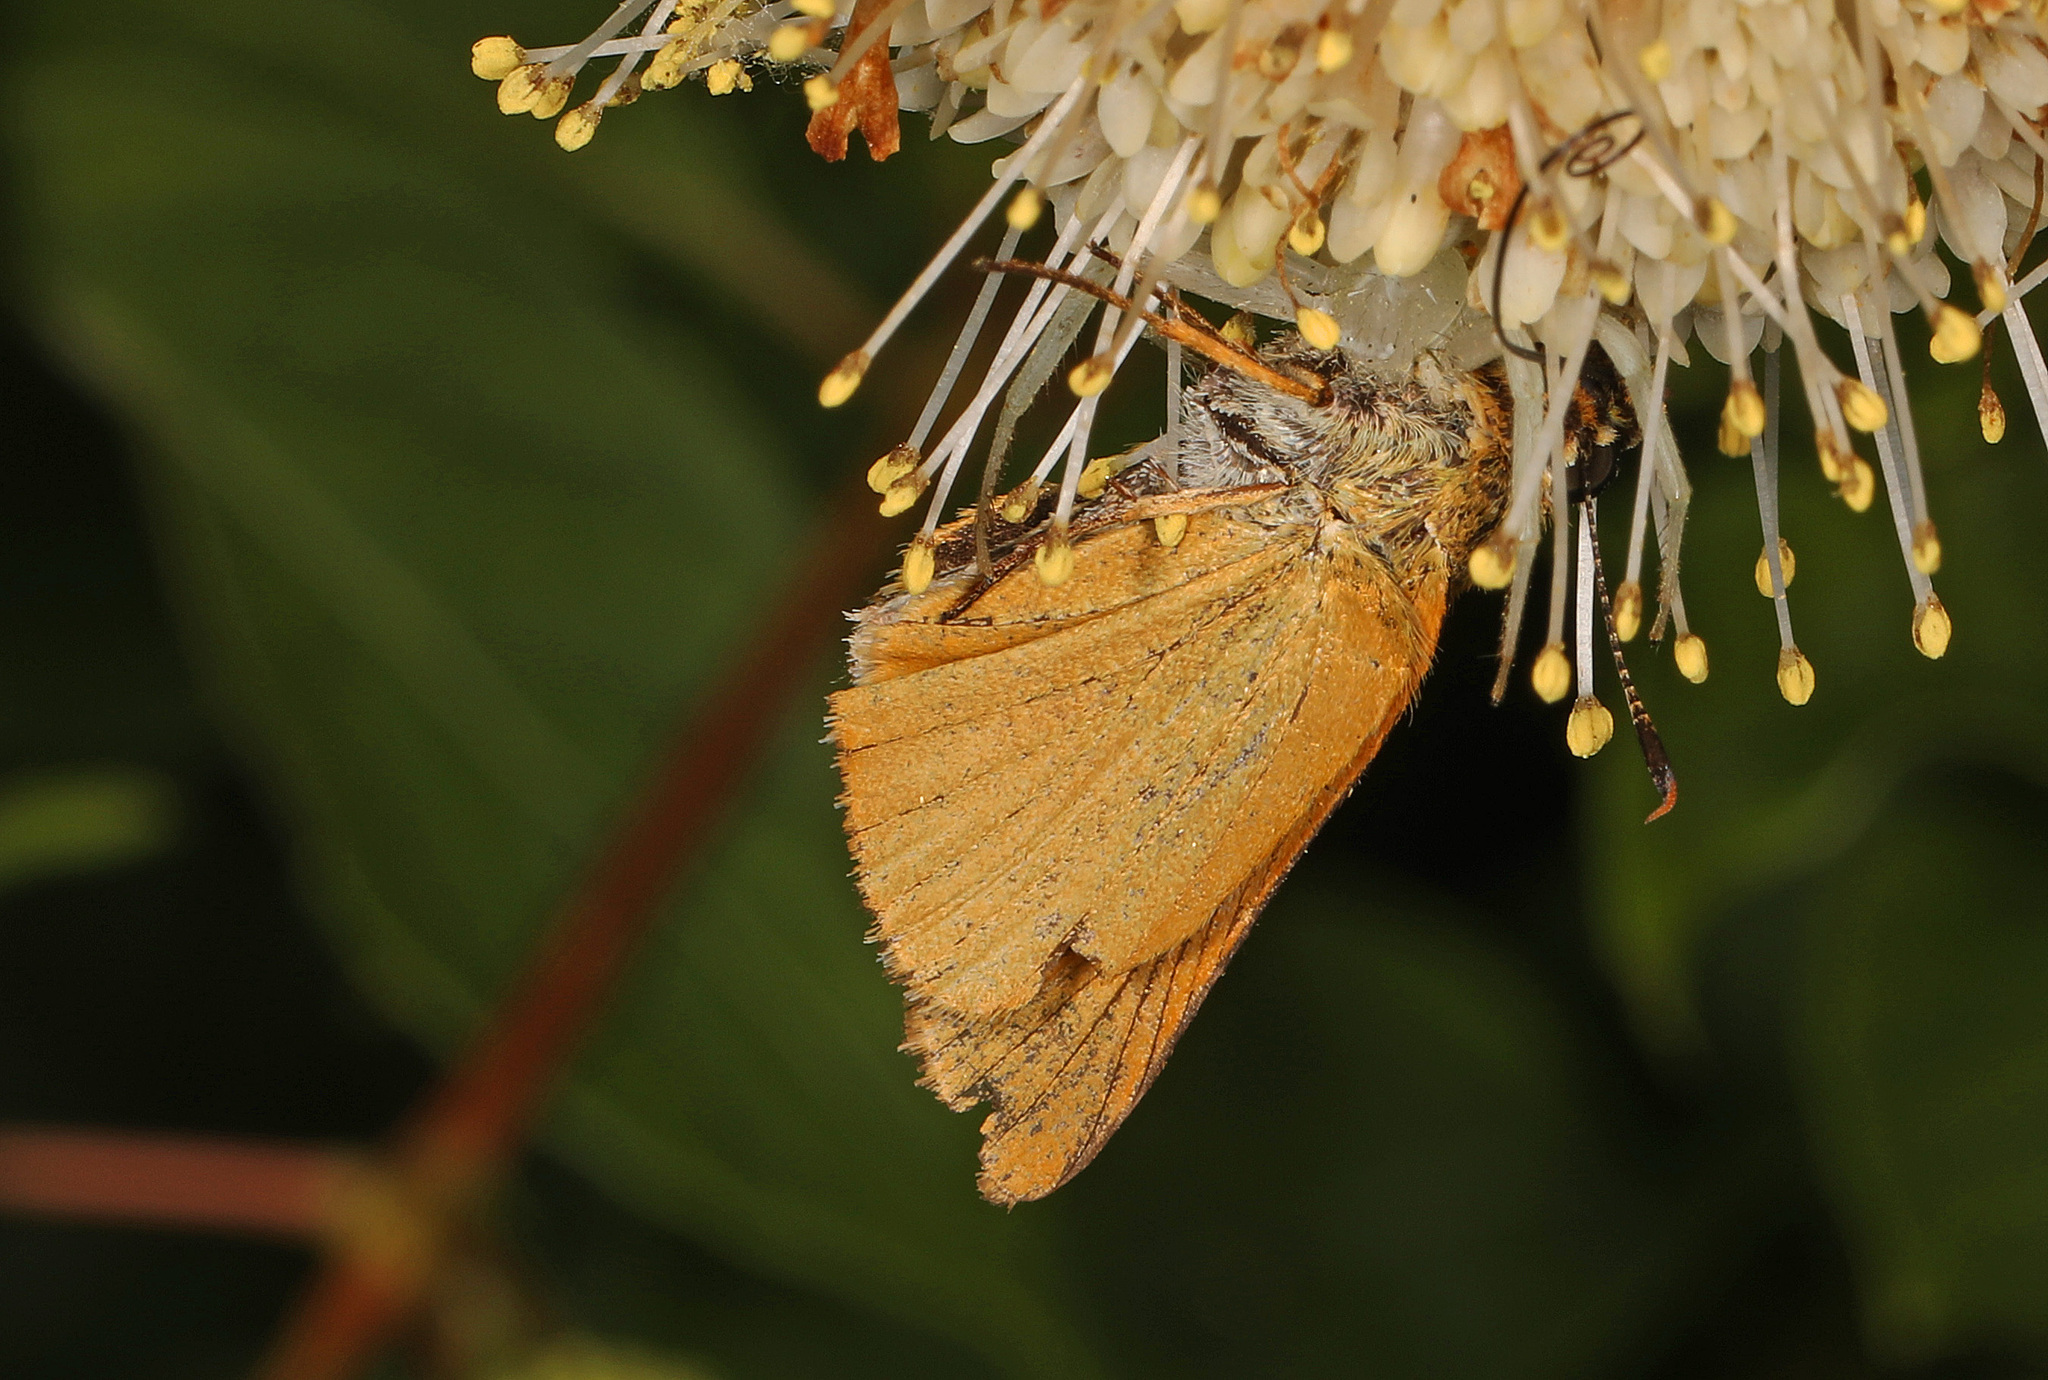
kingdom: Animalia
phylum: Arthropoda
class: Insecta
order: Lepidoptera
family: Hesperiidae
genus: Atrytone
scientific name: Atrytone delaware
